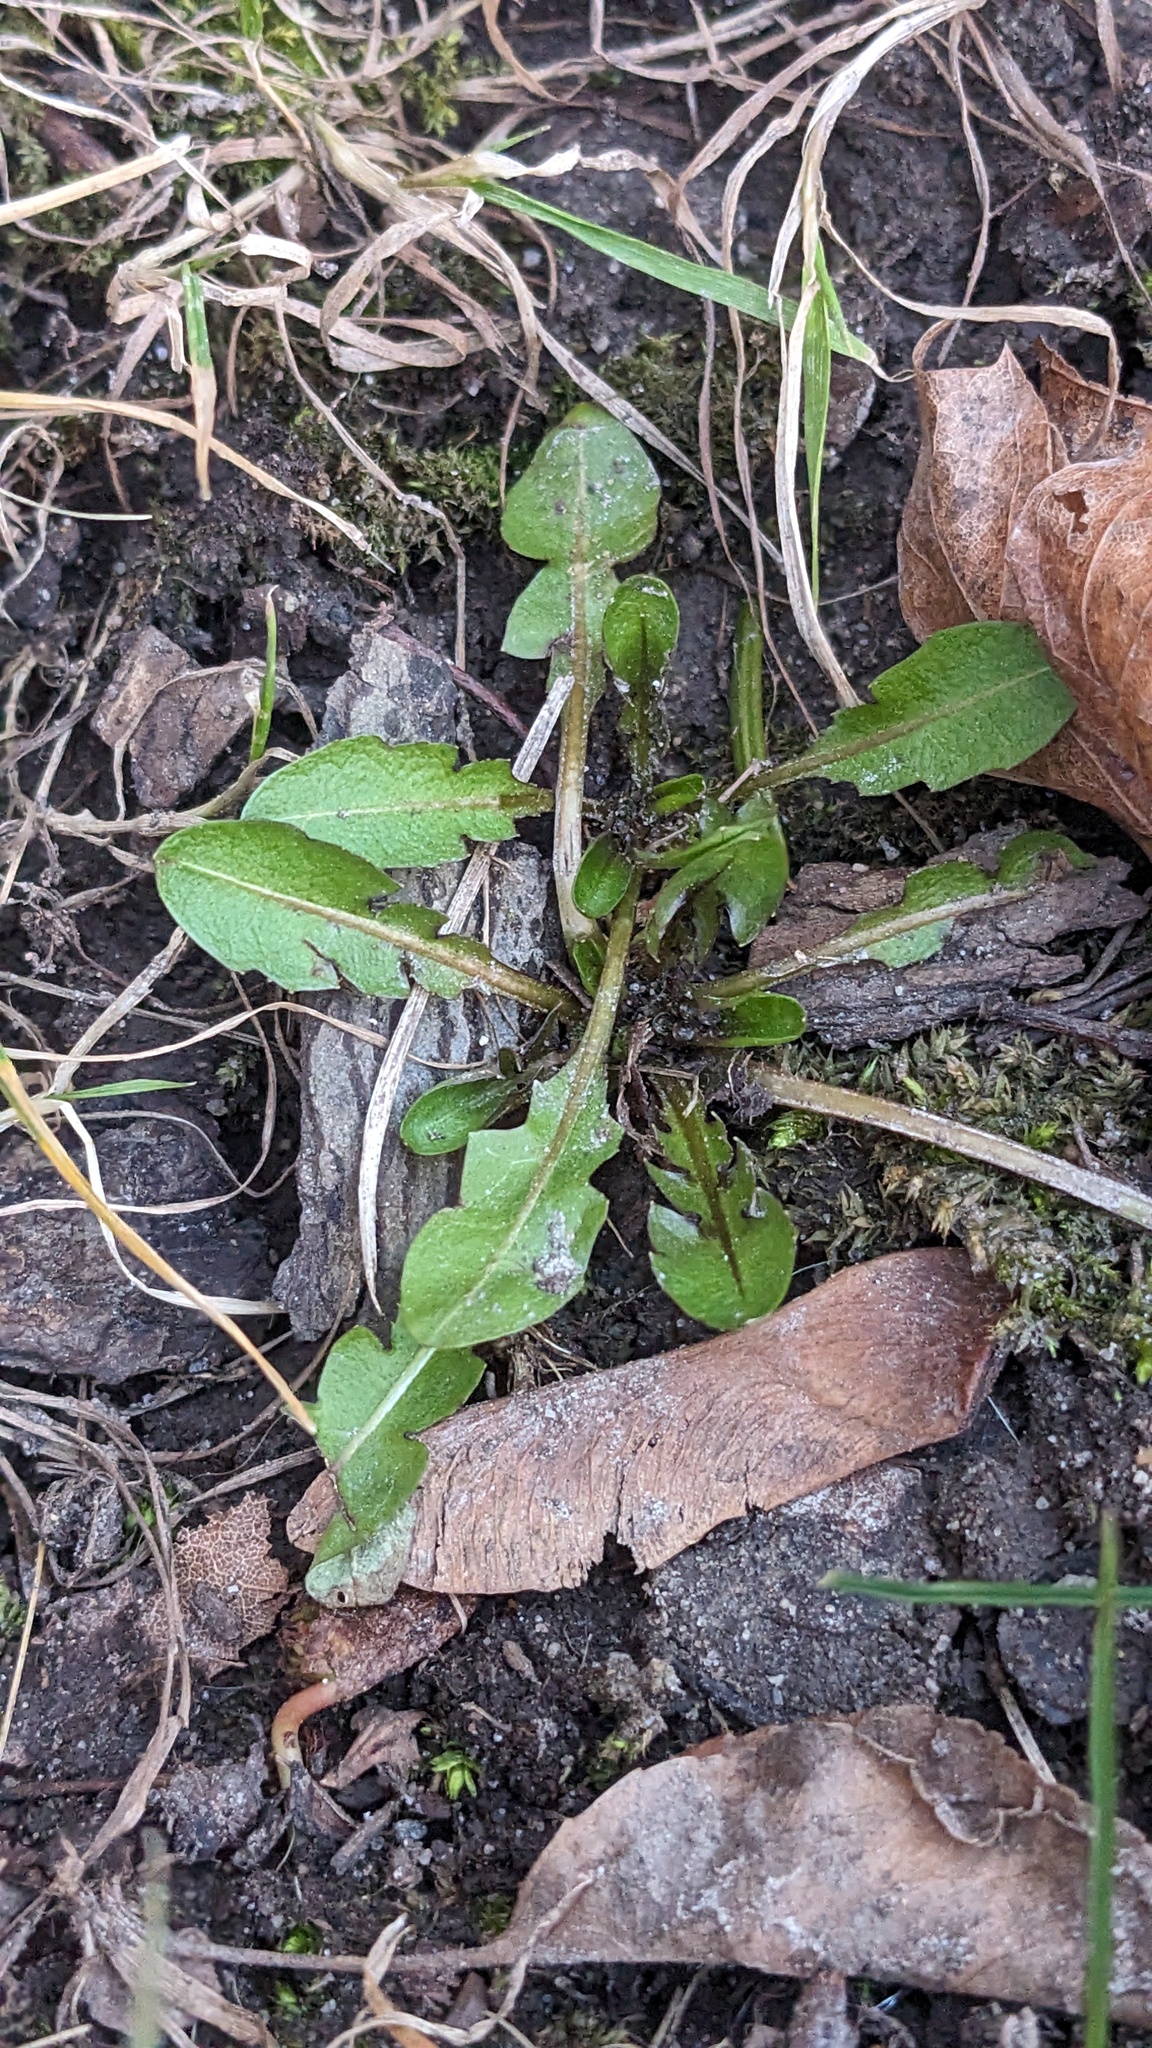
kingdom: Plantae
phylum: Tracheophyta
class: Magnoliopsida
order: Asterales
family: Asteraceae
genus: Taraxacum
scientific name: Taraxacum
